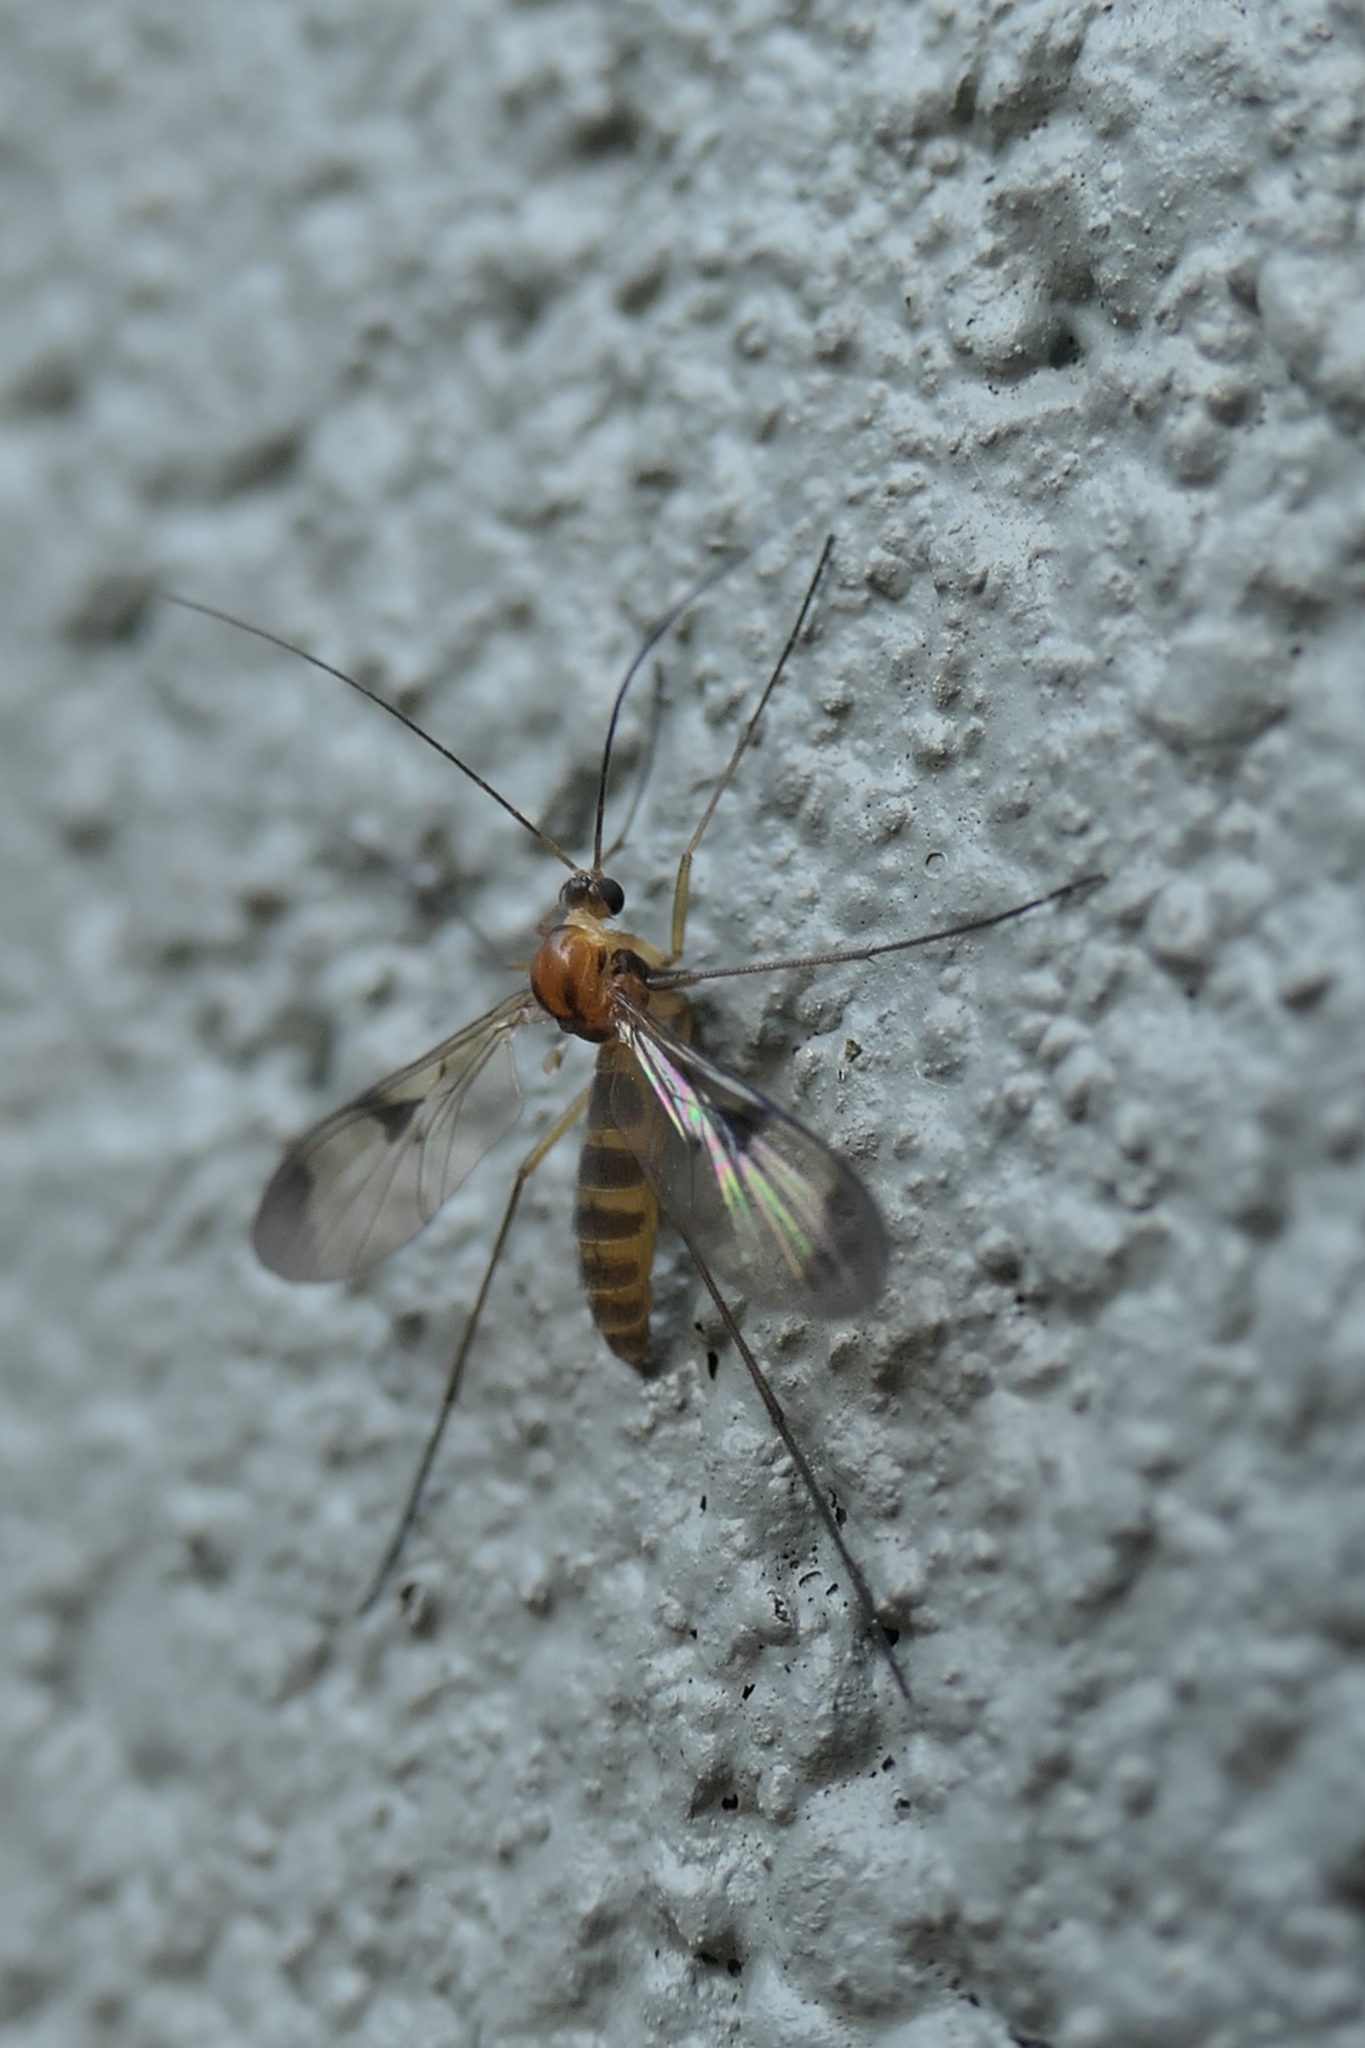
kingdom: Animalia
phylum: Arthropoda
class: Insecta
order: Diptera
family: Keroplatidae
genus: Macrocera
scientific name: Macrocera scoparia
